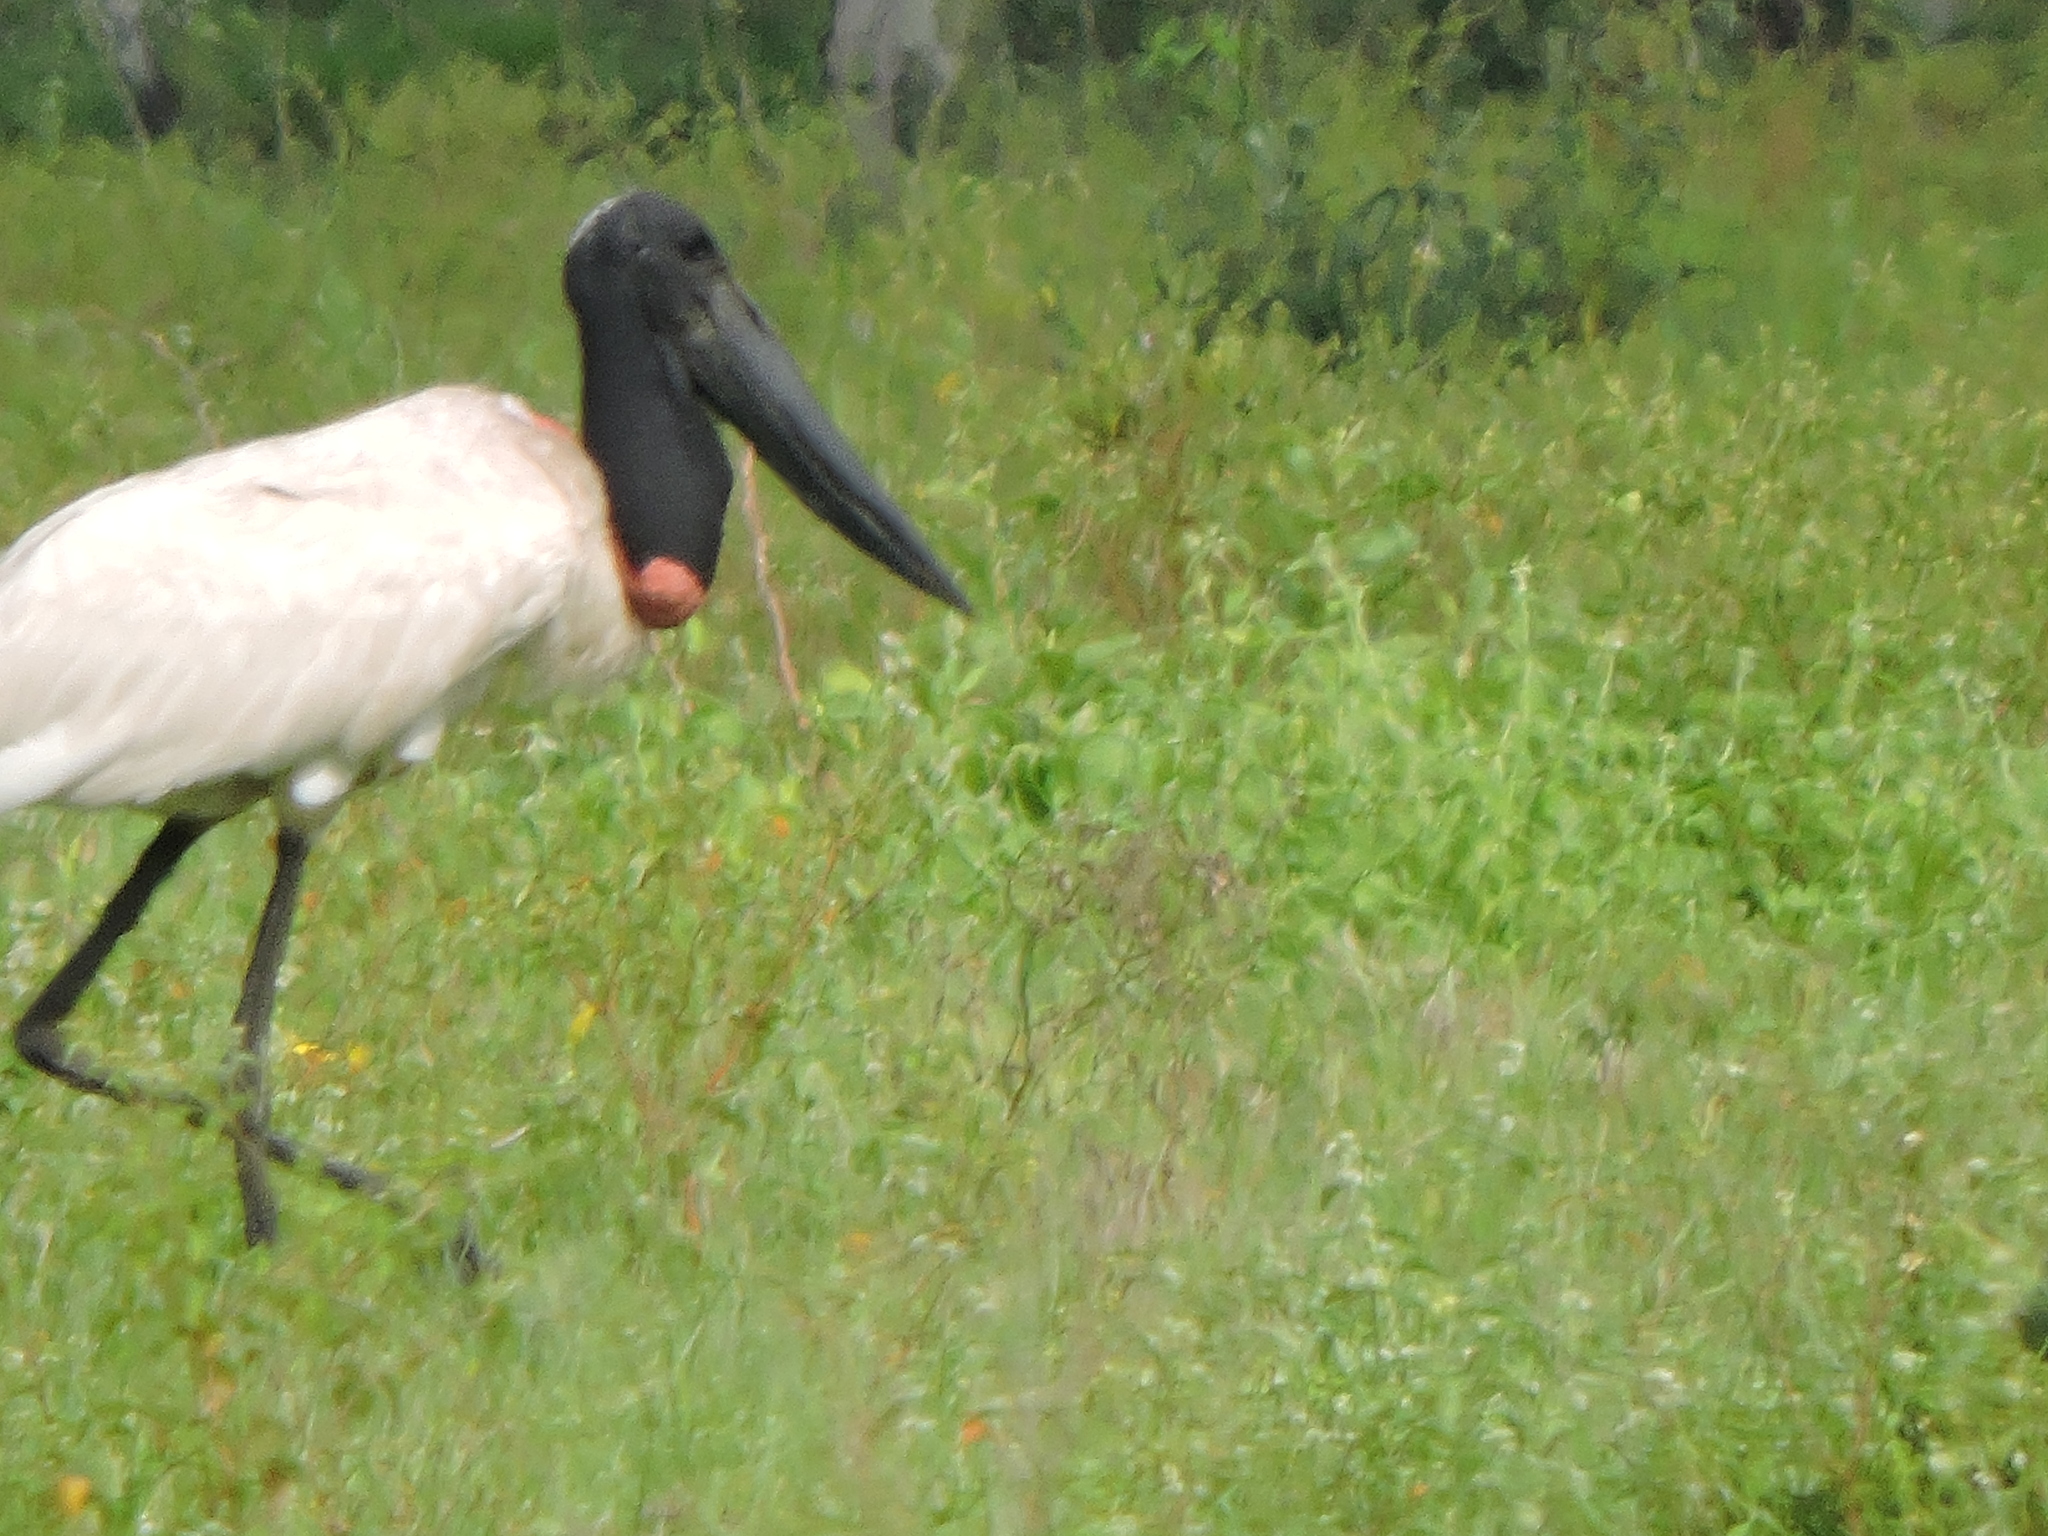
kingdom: Animalia
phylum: Chordata
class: Aves
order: Ciconiiformes
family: Ciconiidae
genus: Jabiru
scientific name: Jabiru mycteria
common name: Jabiru
